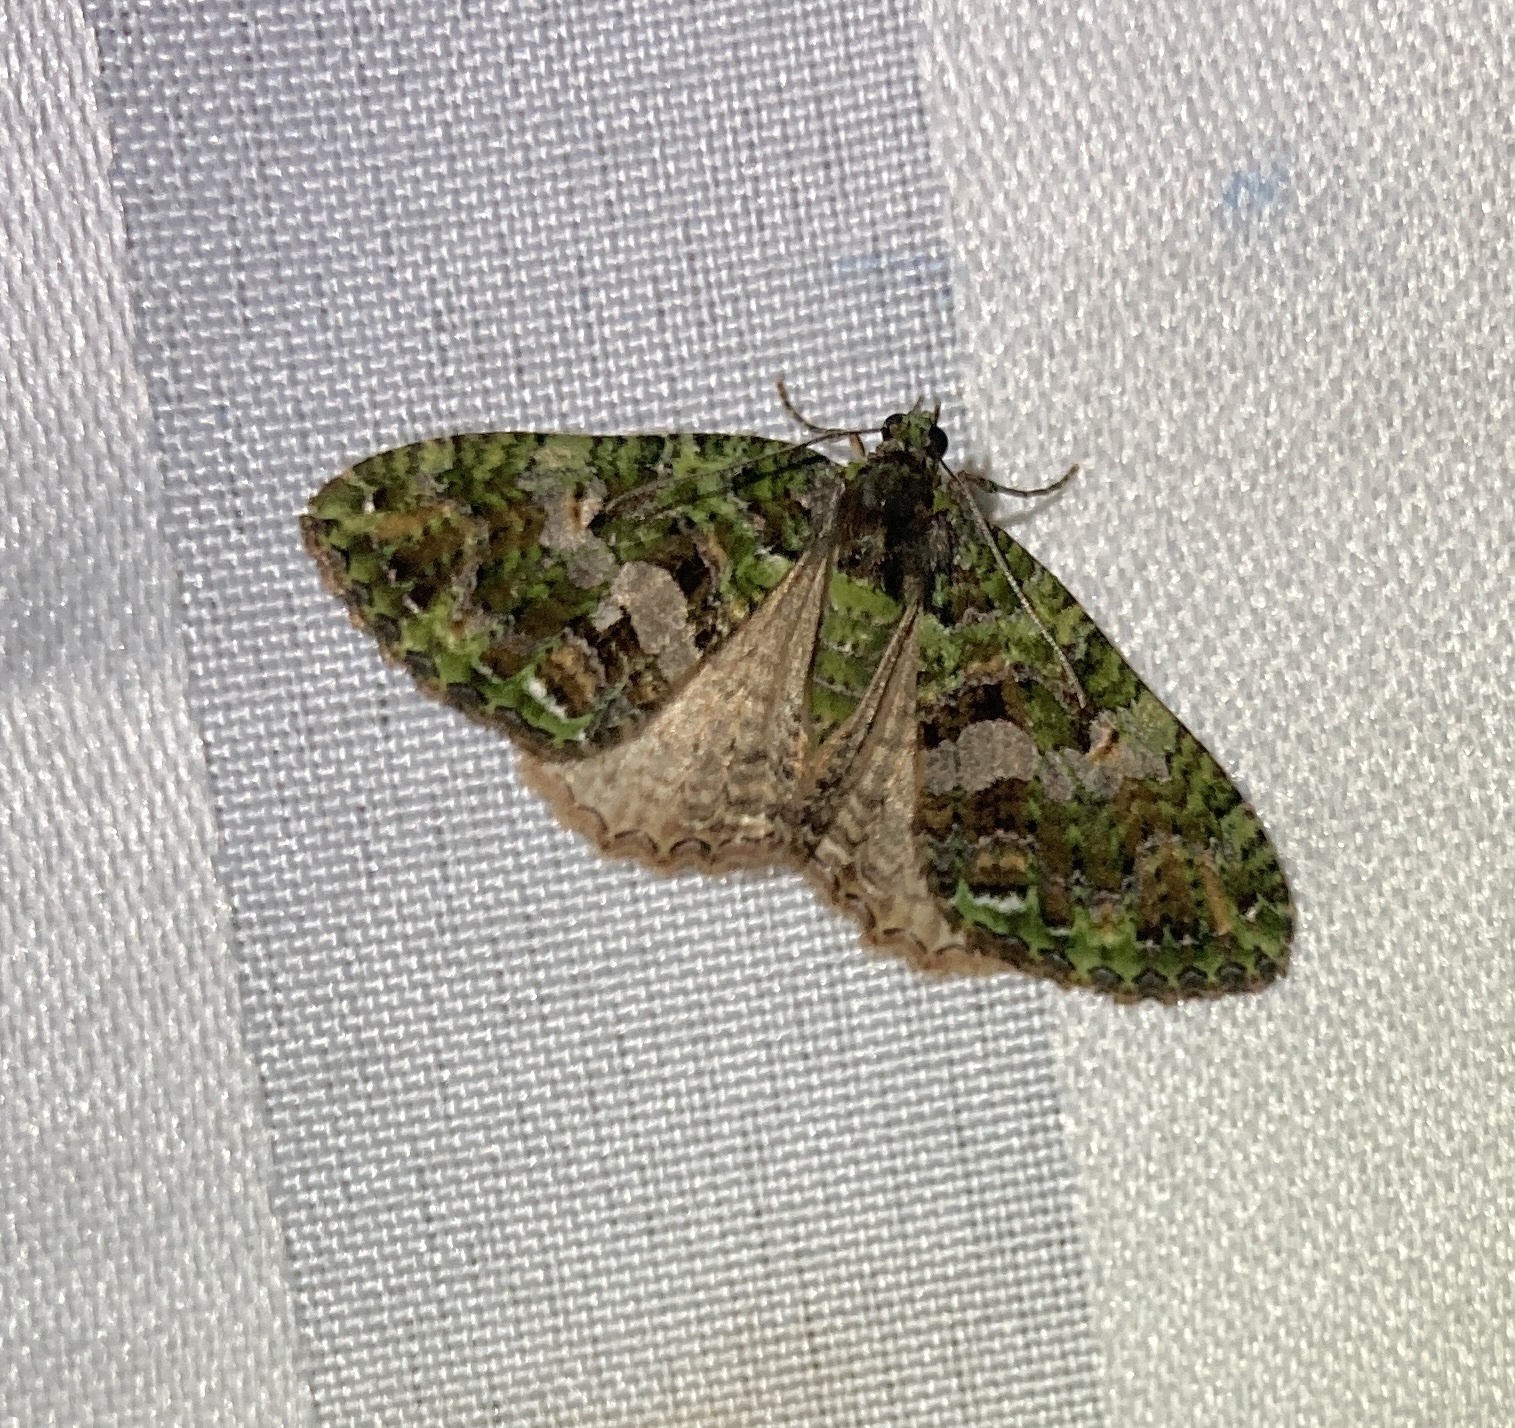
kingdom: Animalia
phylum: Arthropoda
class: Insecta
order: Lepidoptera
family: Geometridae
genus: Austrocidaria
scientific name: Austrocidaria similata
